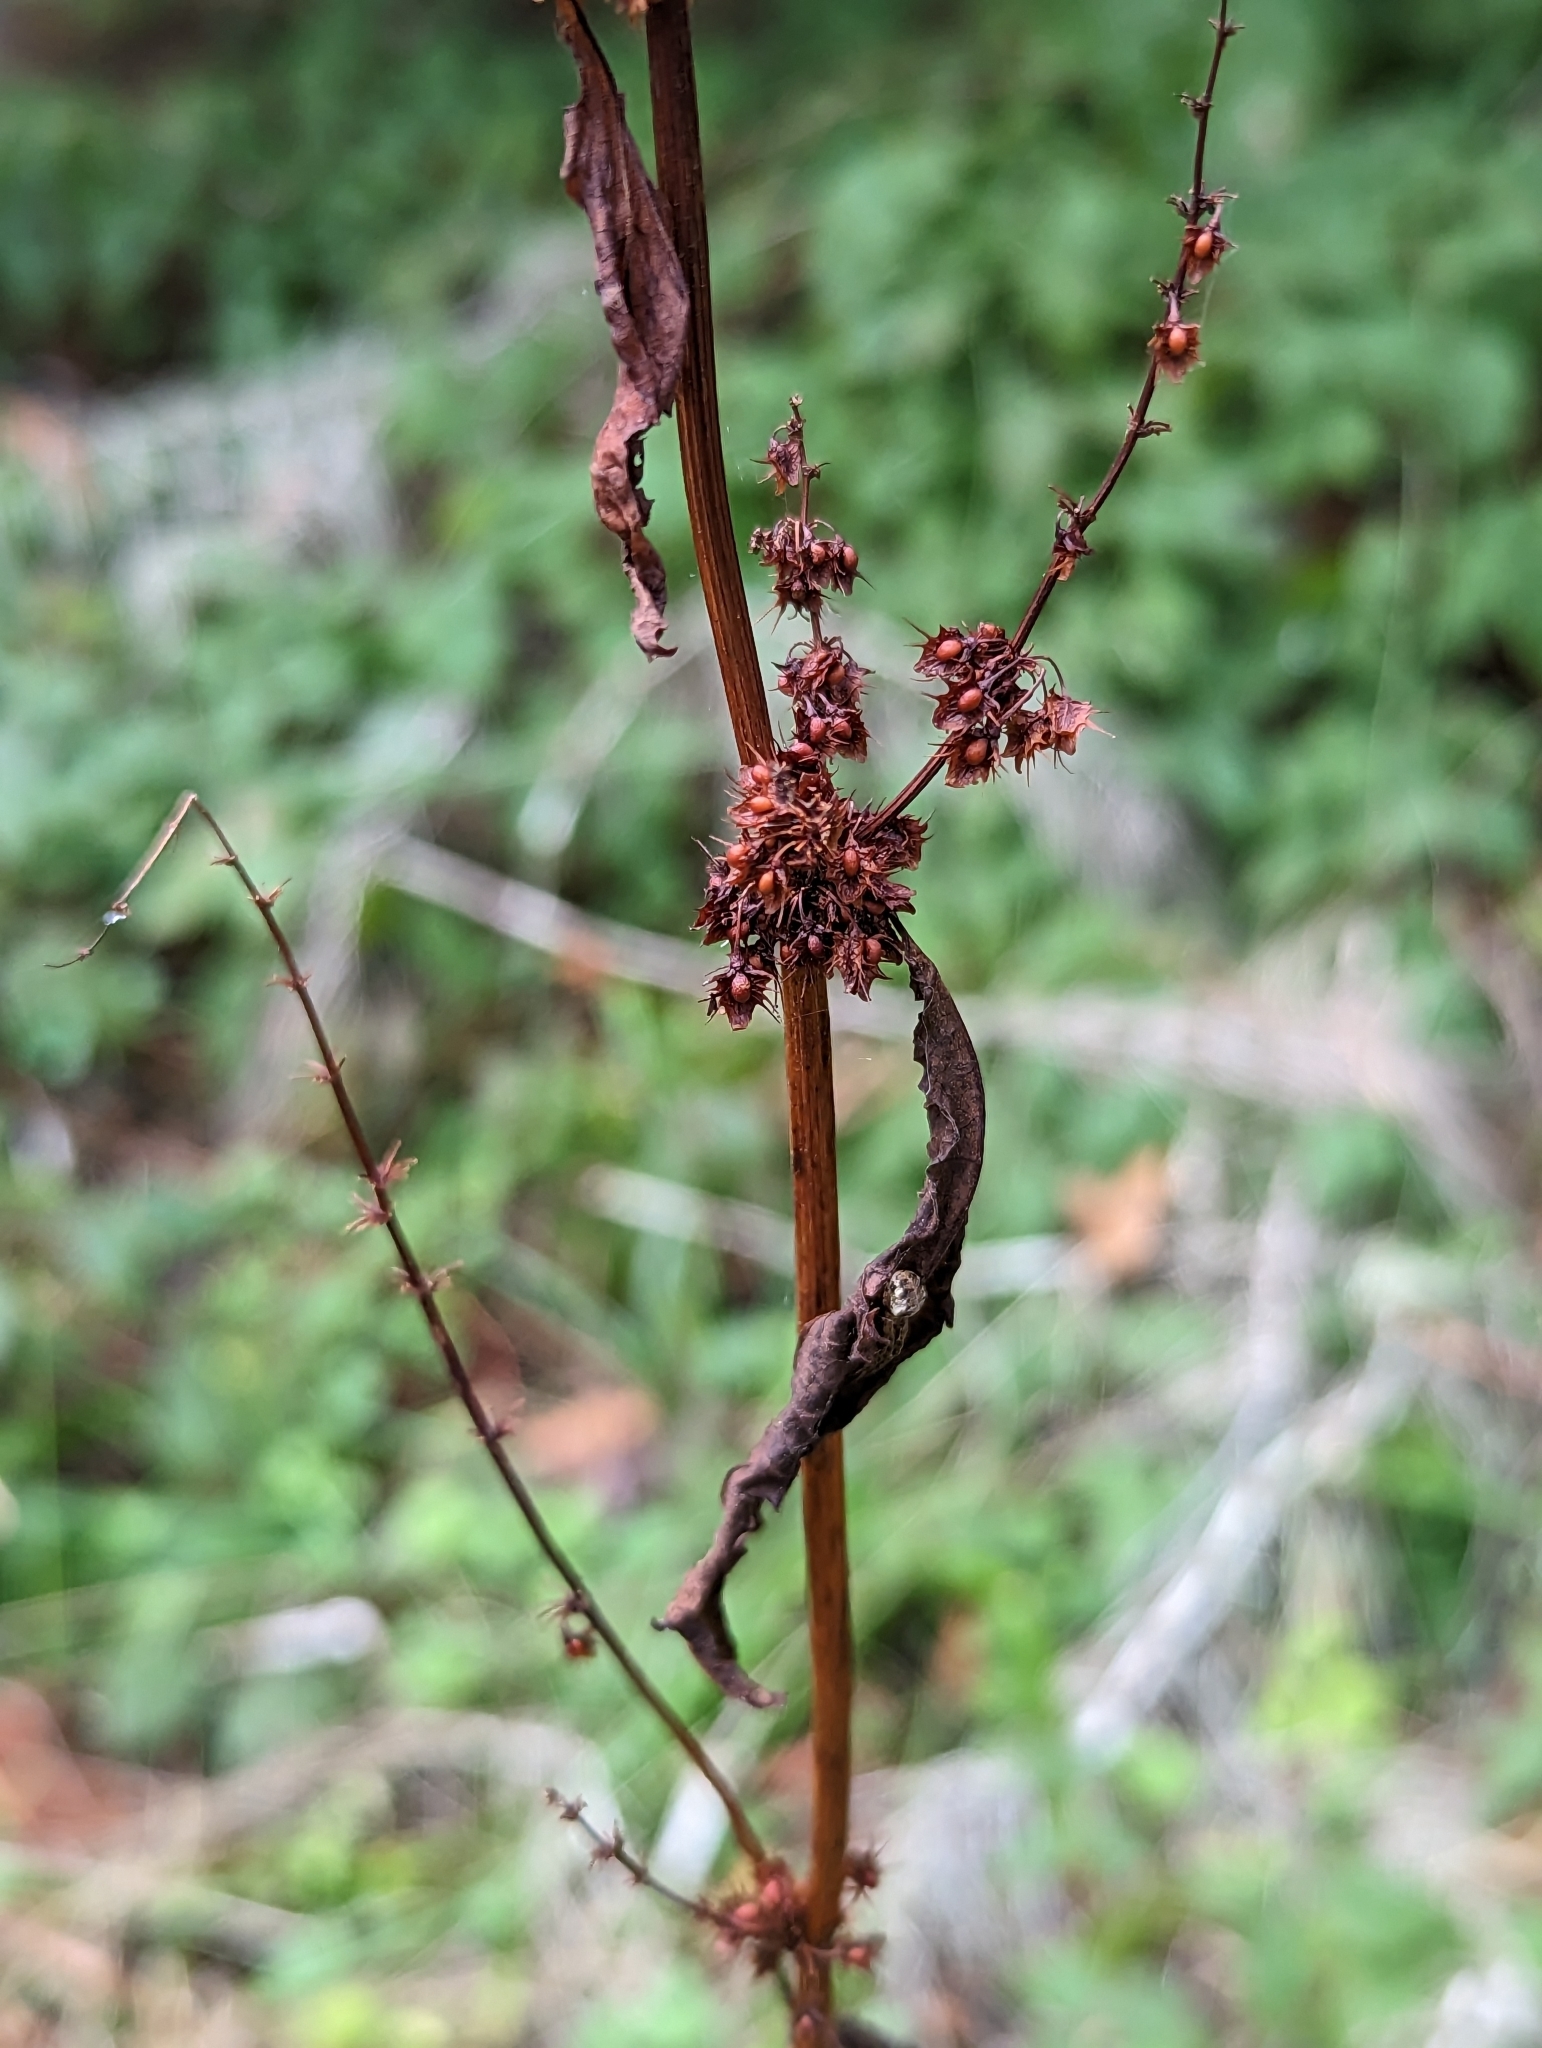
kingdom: Plantae
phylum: Tracheophyta
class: Magnoliopsida
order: Caryophyllales
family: Polygonaceae
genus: Rumex
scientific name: Rumex obtusifolius
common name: Bitter dock
